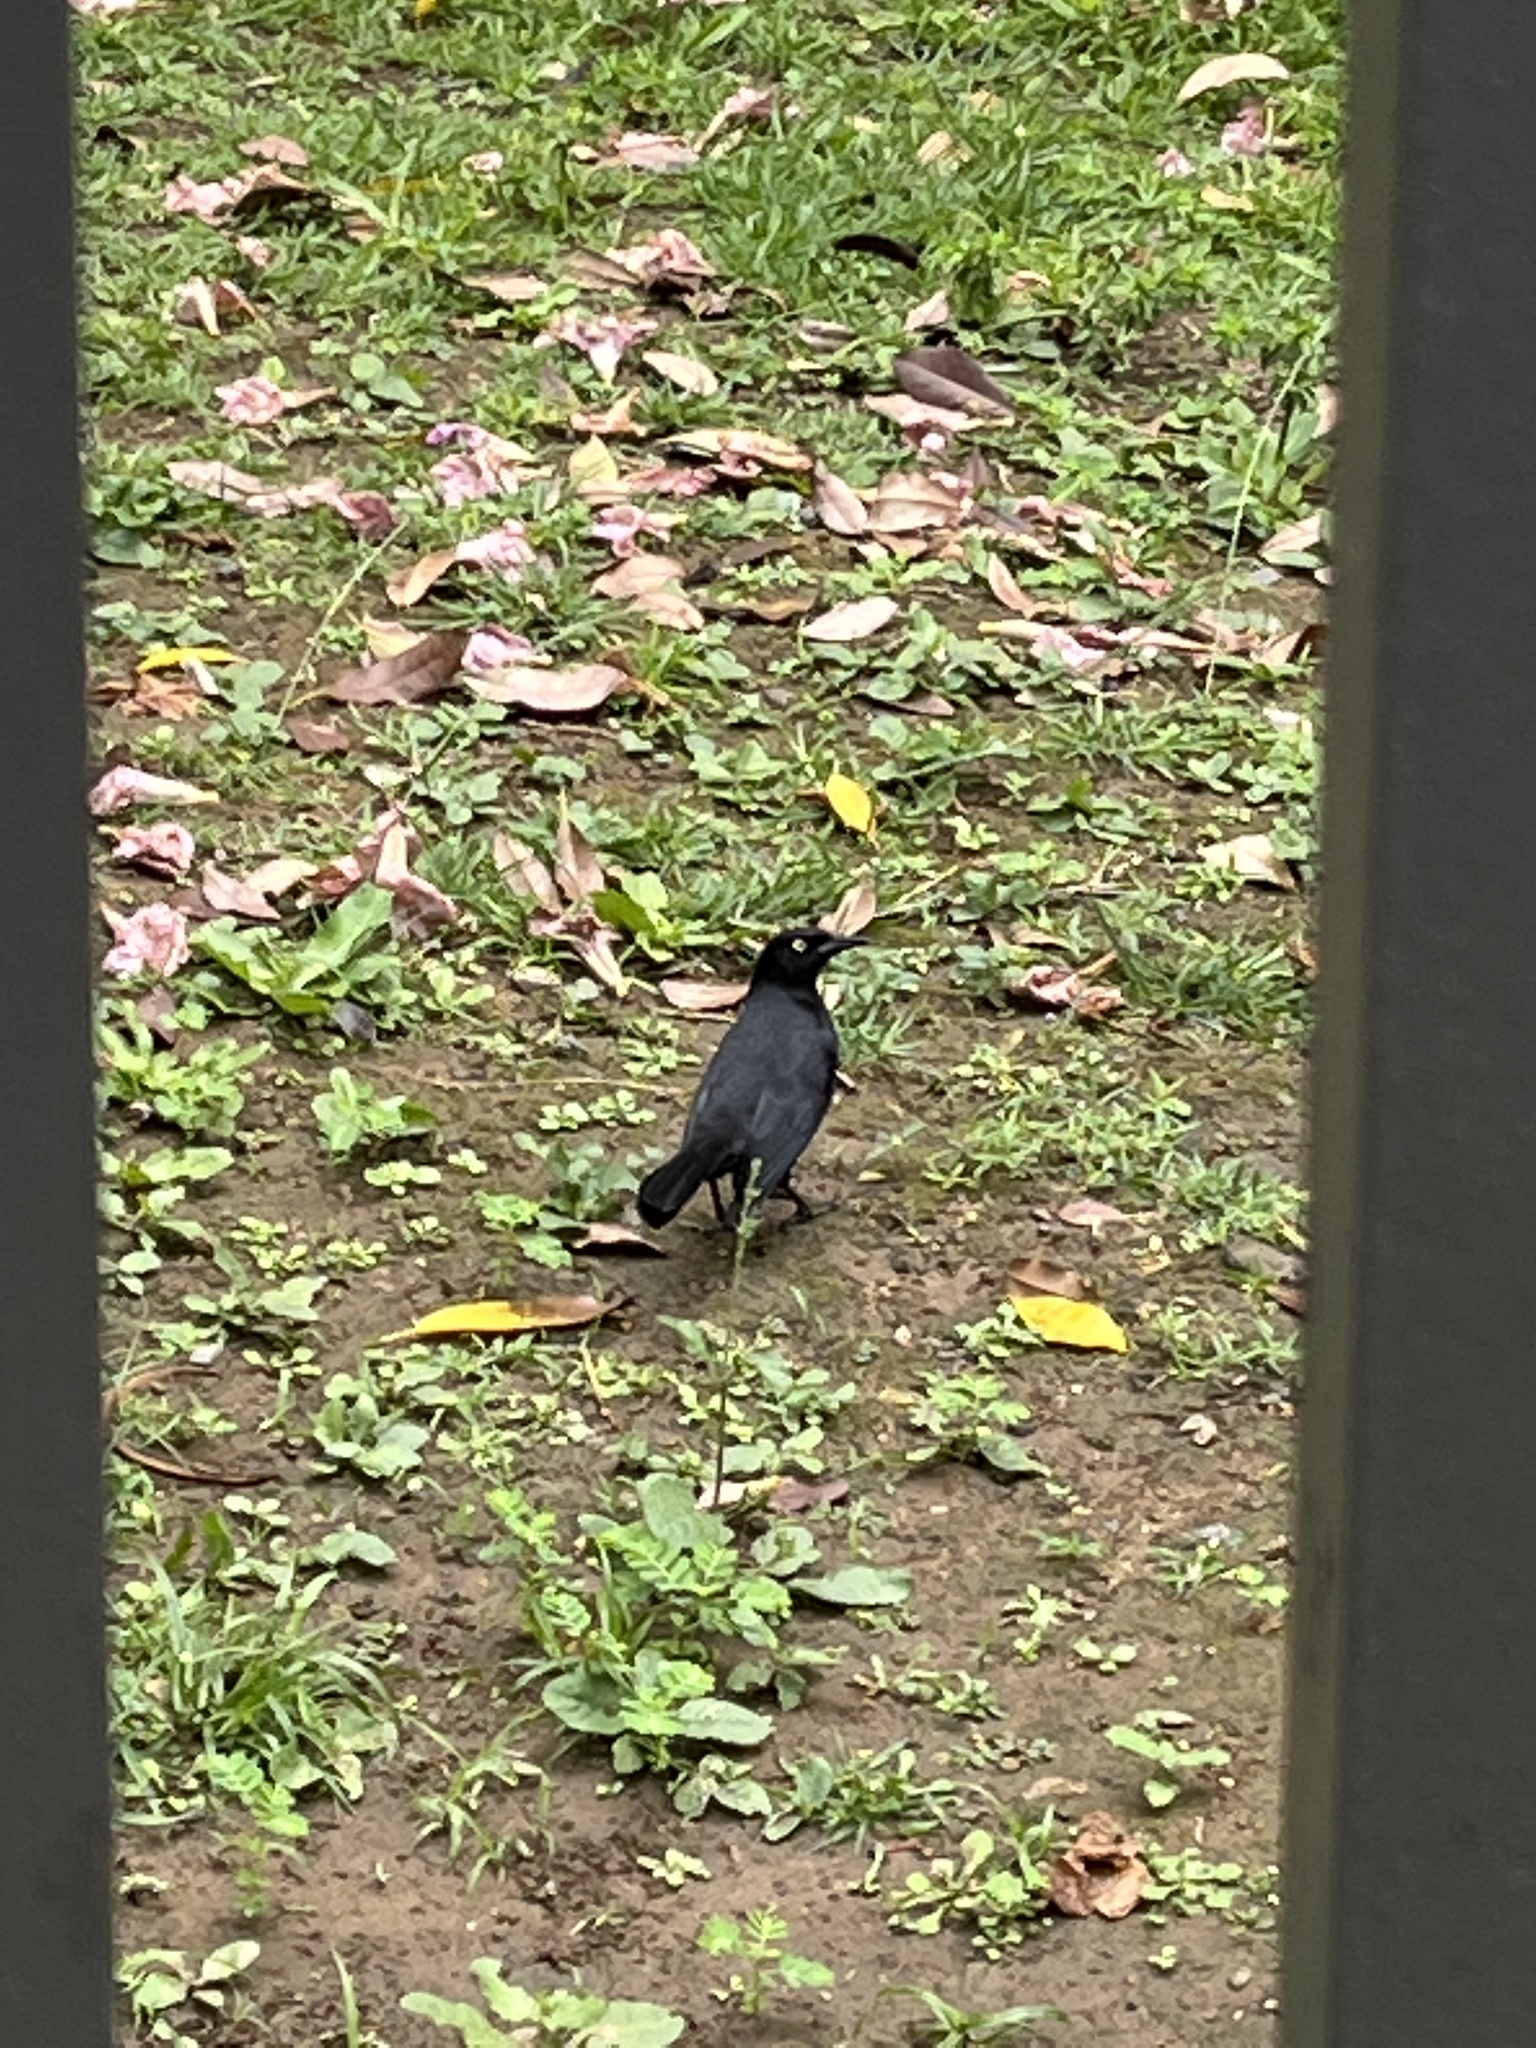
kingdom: Animalia
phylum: Chordata
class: Aves
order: Passeriformes
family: Icteridae
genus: Quiscalus
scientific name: Quiscalus niger
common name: Greater antillean grackle
